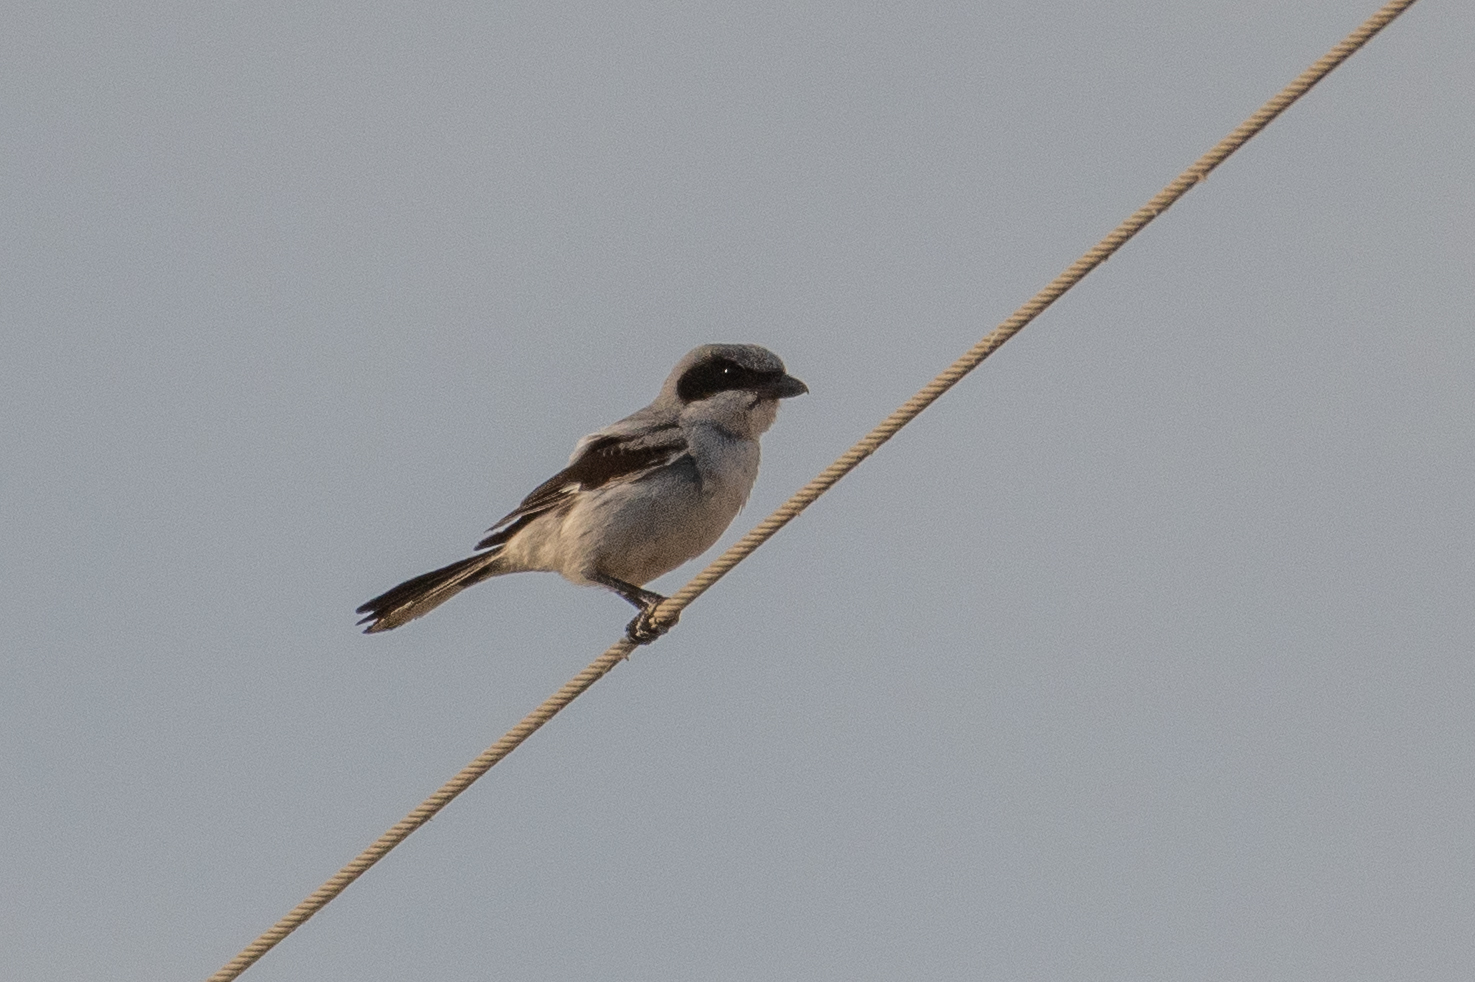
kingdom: Animalia
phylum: Chordata
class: Aves
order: Passeriformes
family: Laniidae
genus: Lanius
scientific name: Lanius ludovicianus
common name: Loggerhead shrike
